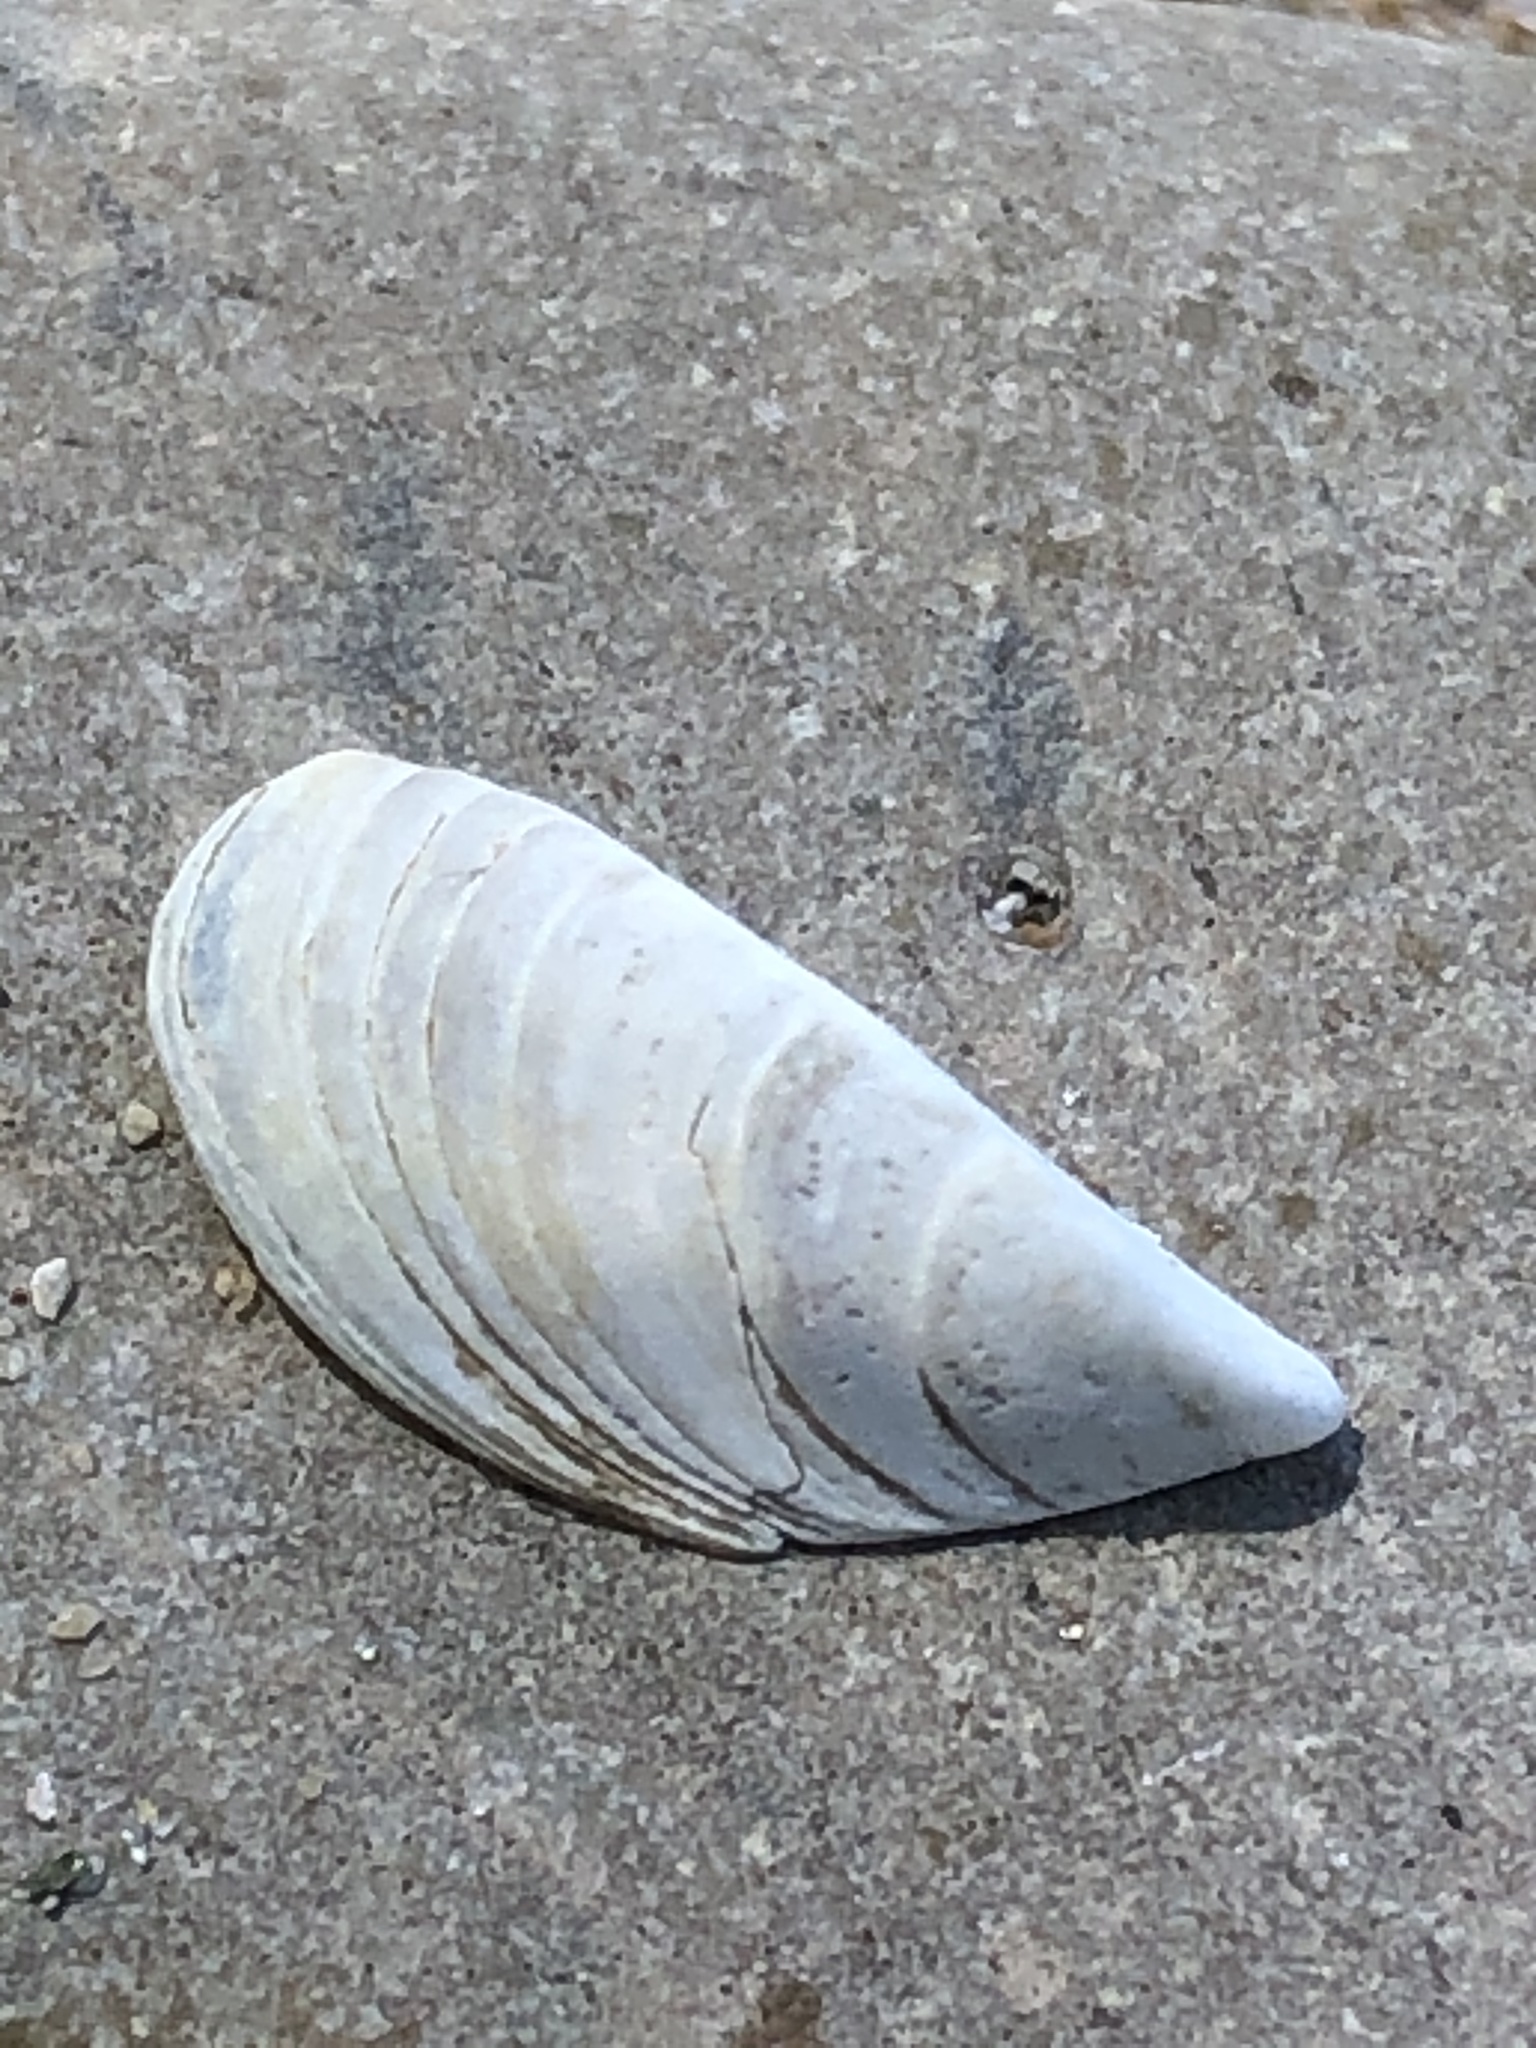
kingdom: Animalia
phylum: Mollusca
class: Bivalvia
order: Myida
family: Dreissenidae
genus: Dreissena
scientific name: Dreissena polymorpha
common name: Zebra mussel
